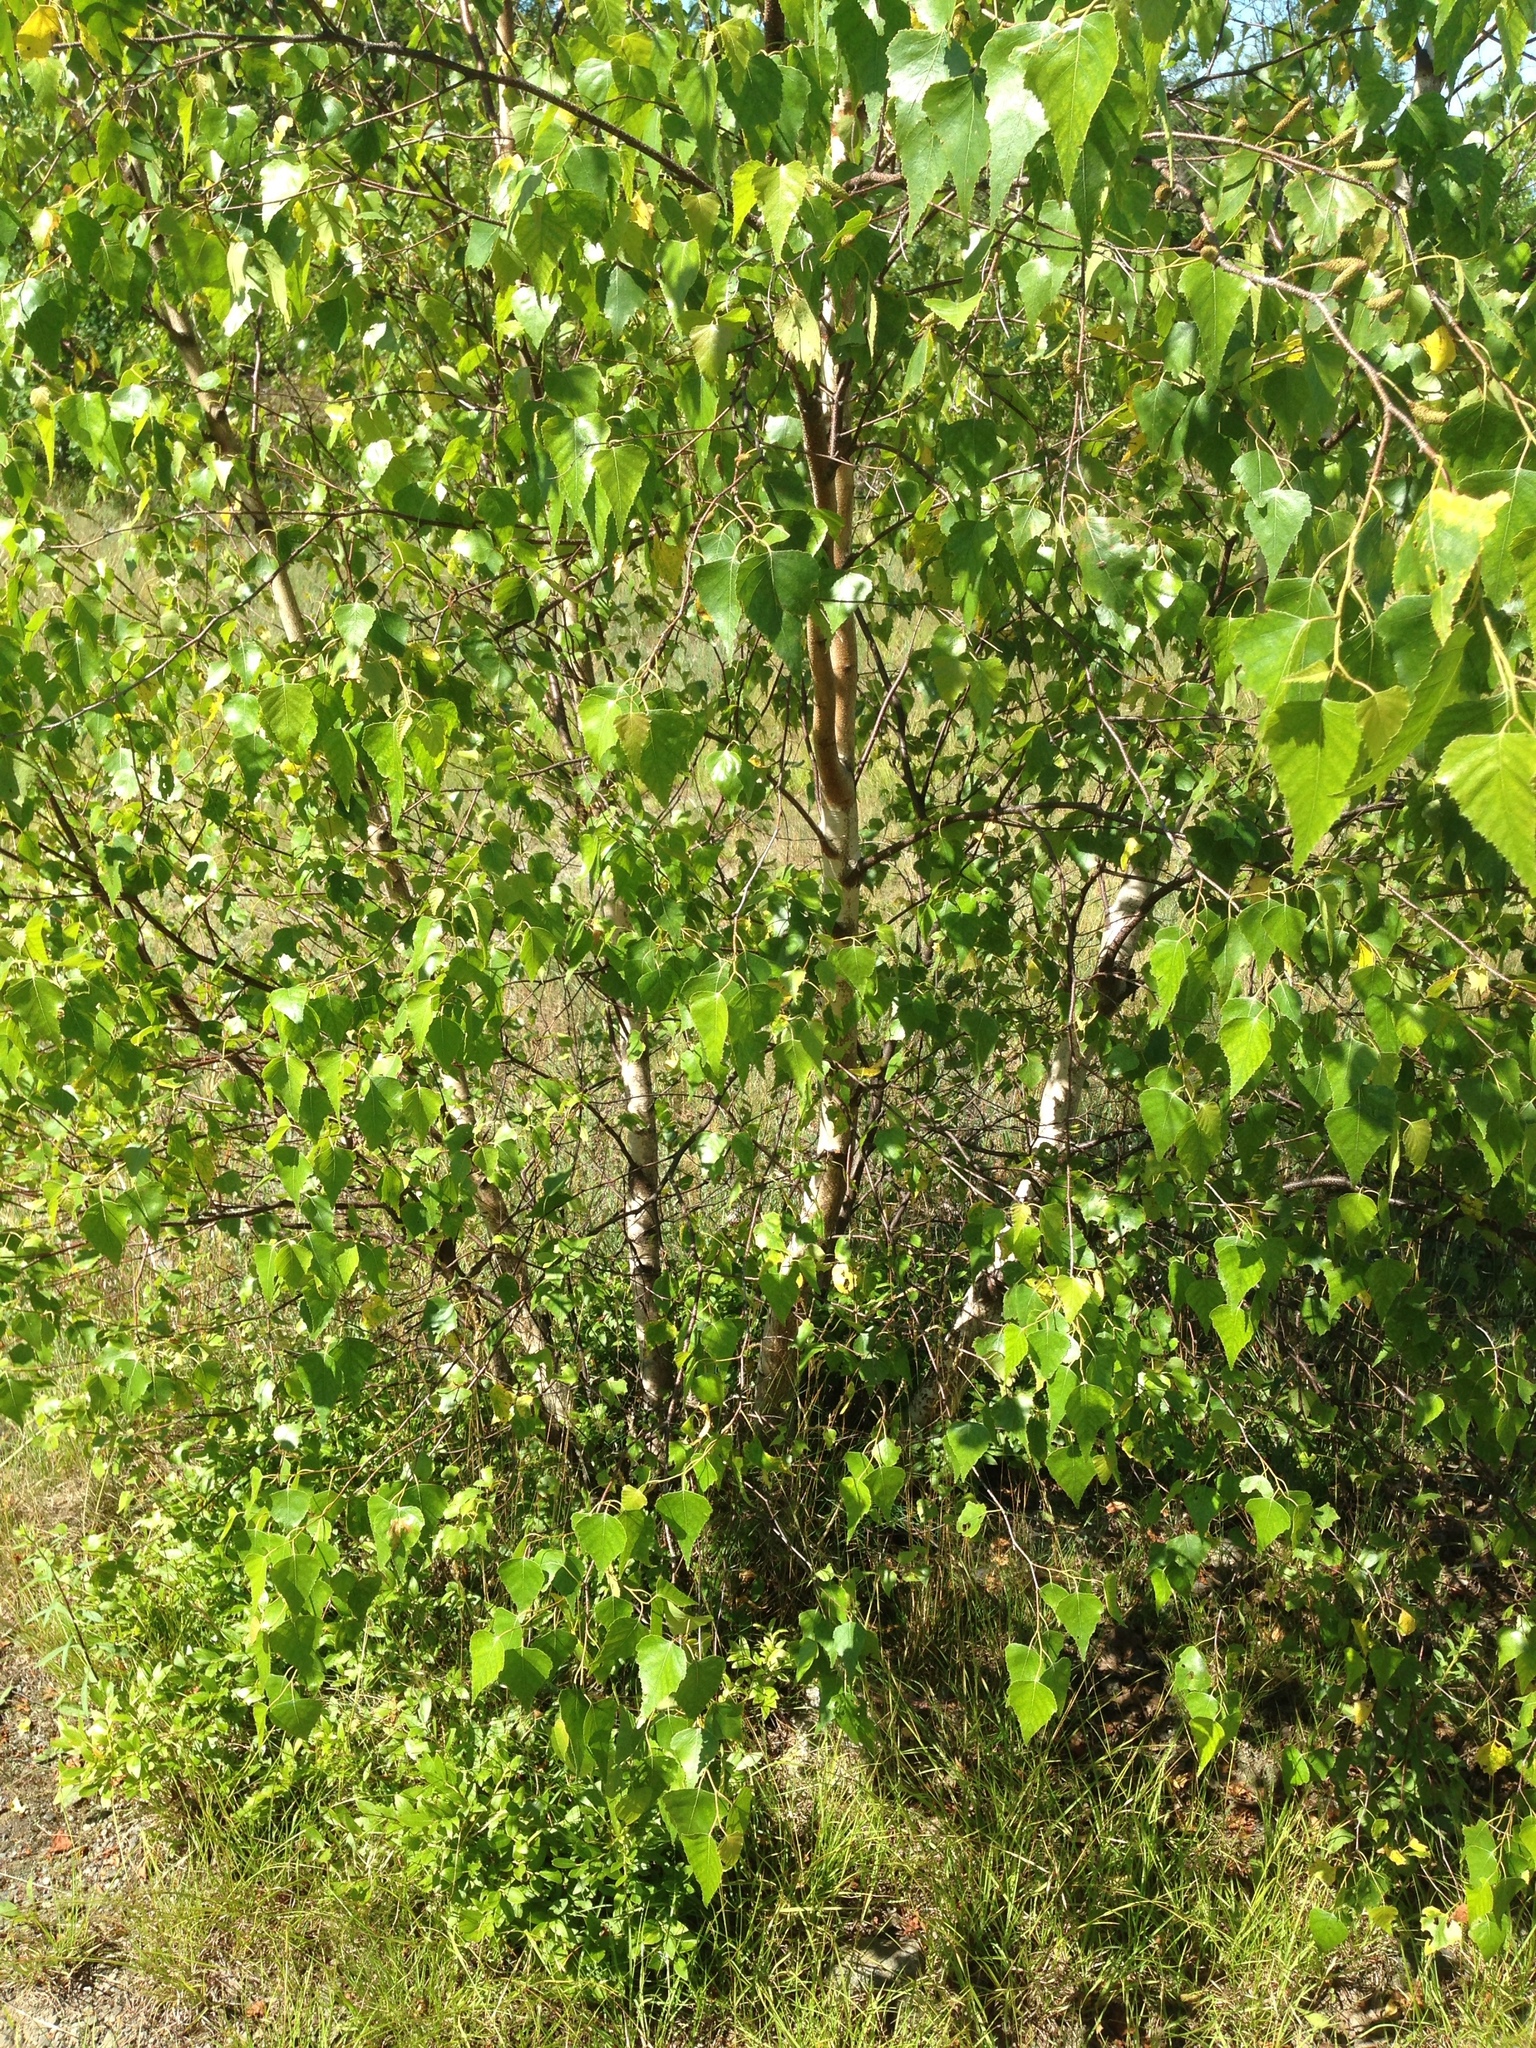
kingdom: Plantae
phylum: Tracheophyta
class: Magnoliopsida
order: Fagales
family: Betulaceae
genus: Betula
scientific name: Betula populifolia
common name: Fire birch
